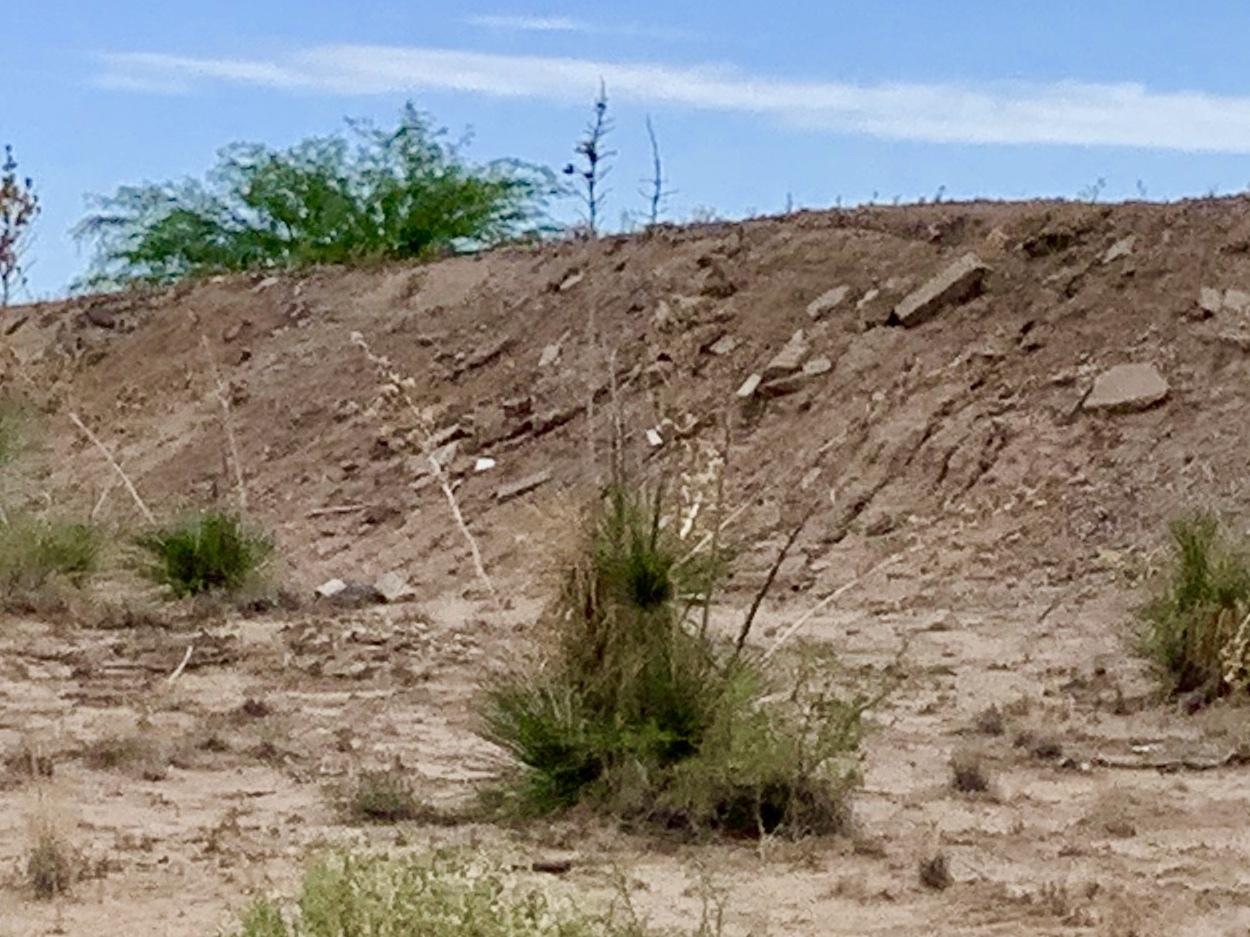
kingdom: Plantae
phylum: Tracheophyta
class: Liliopsida
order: Asparagales
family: Asparagaceae
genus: Yucca
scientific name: Yucca elata
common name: Palmella
